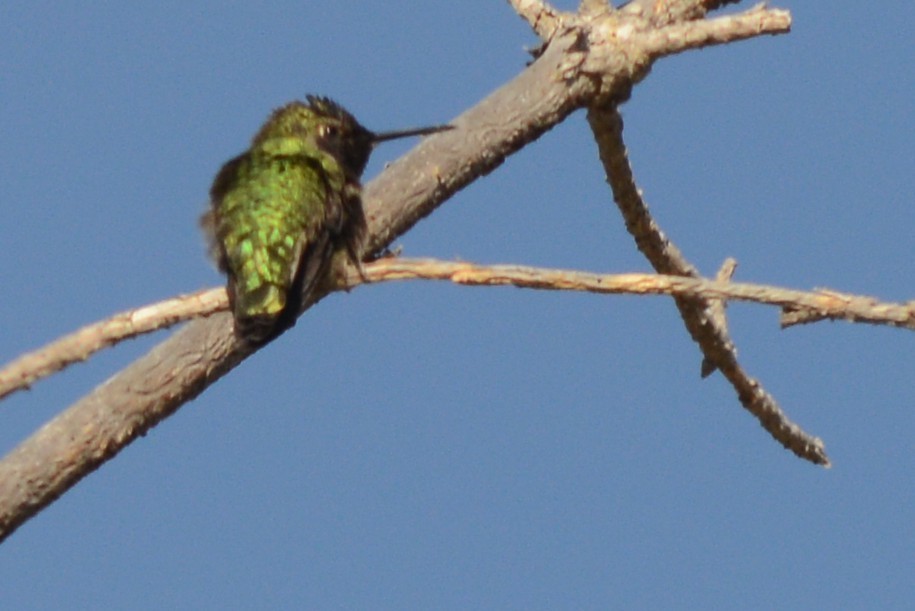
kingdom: Animalia
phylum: Chordata
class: Aves
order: Apodiformes
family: Trochilidae
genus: Calypte
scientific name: Calypte anna
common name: Anna's hummingbird
